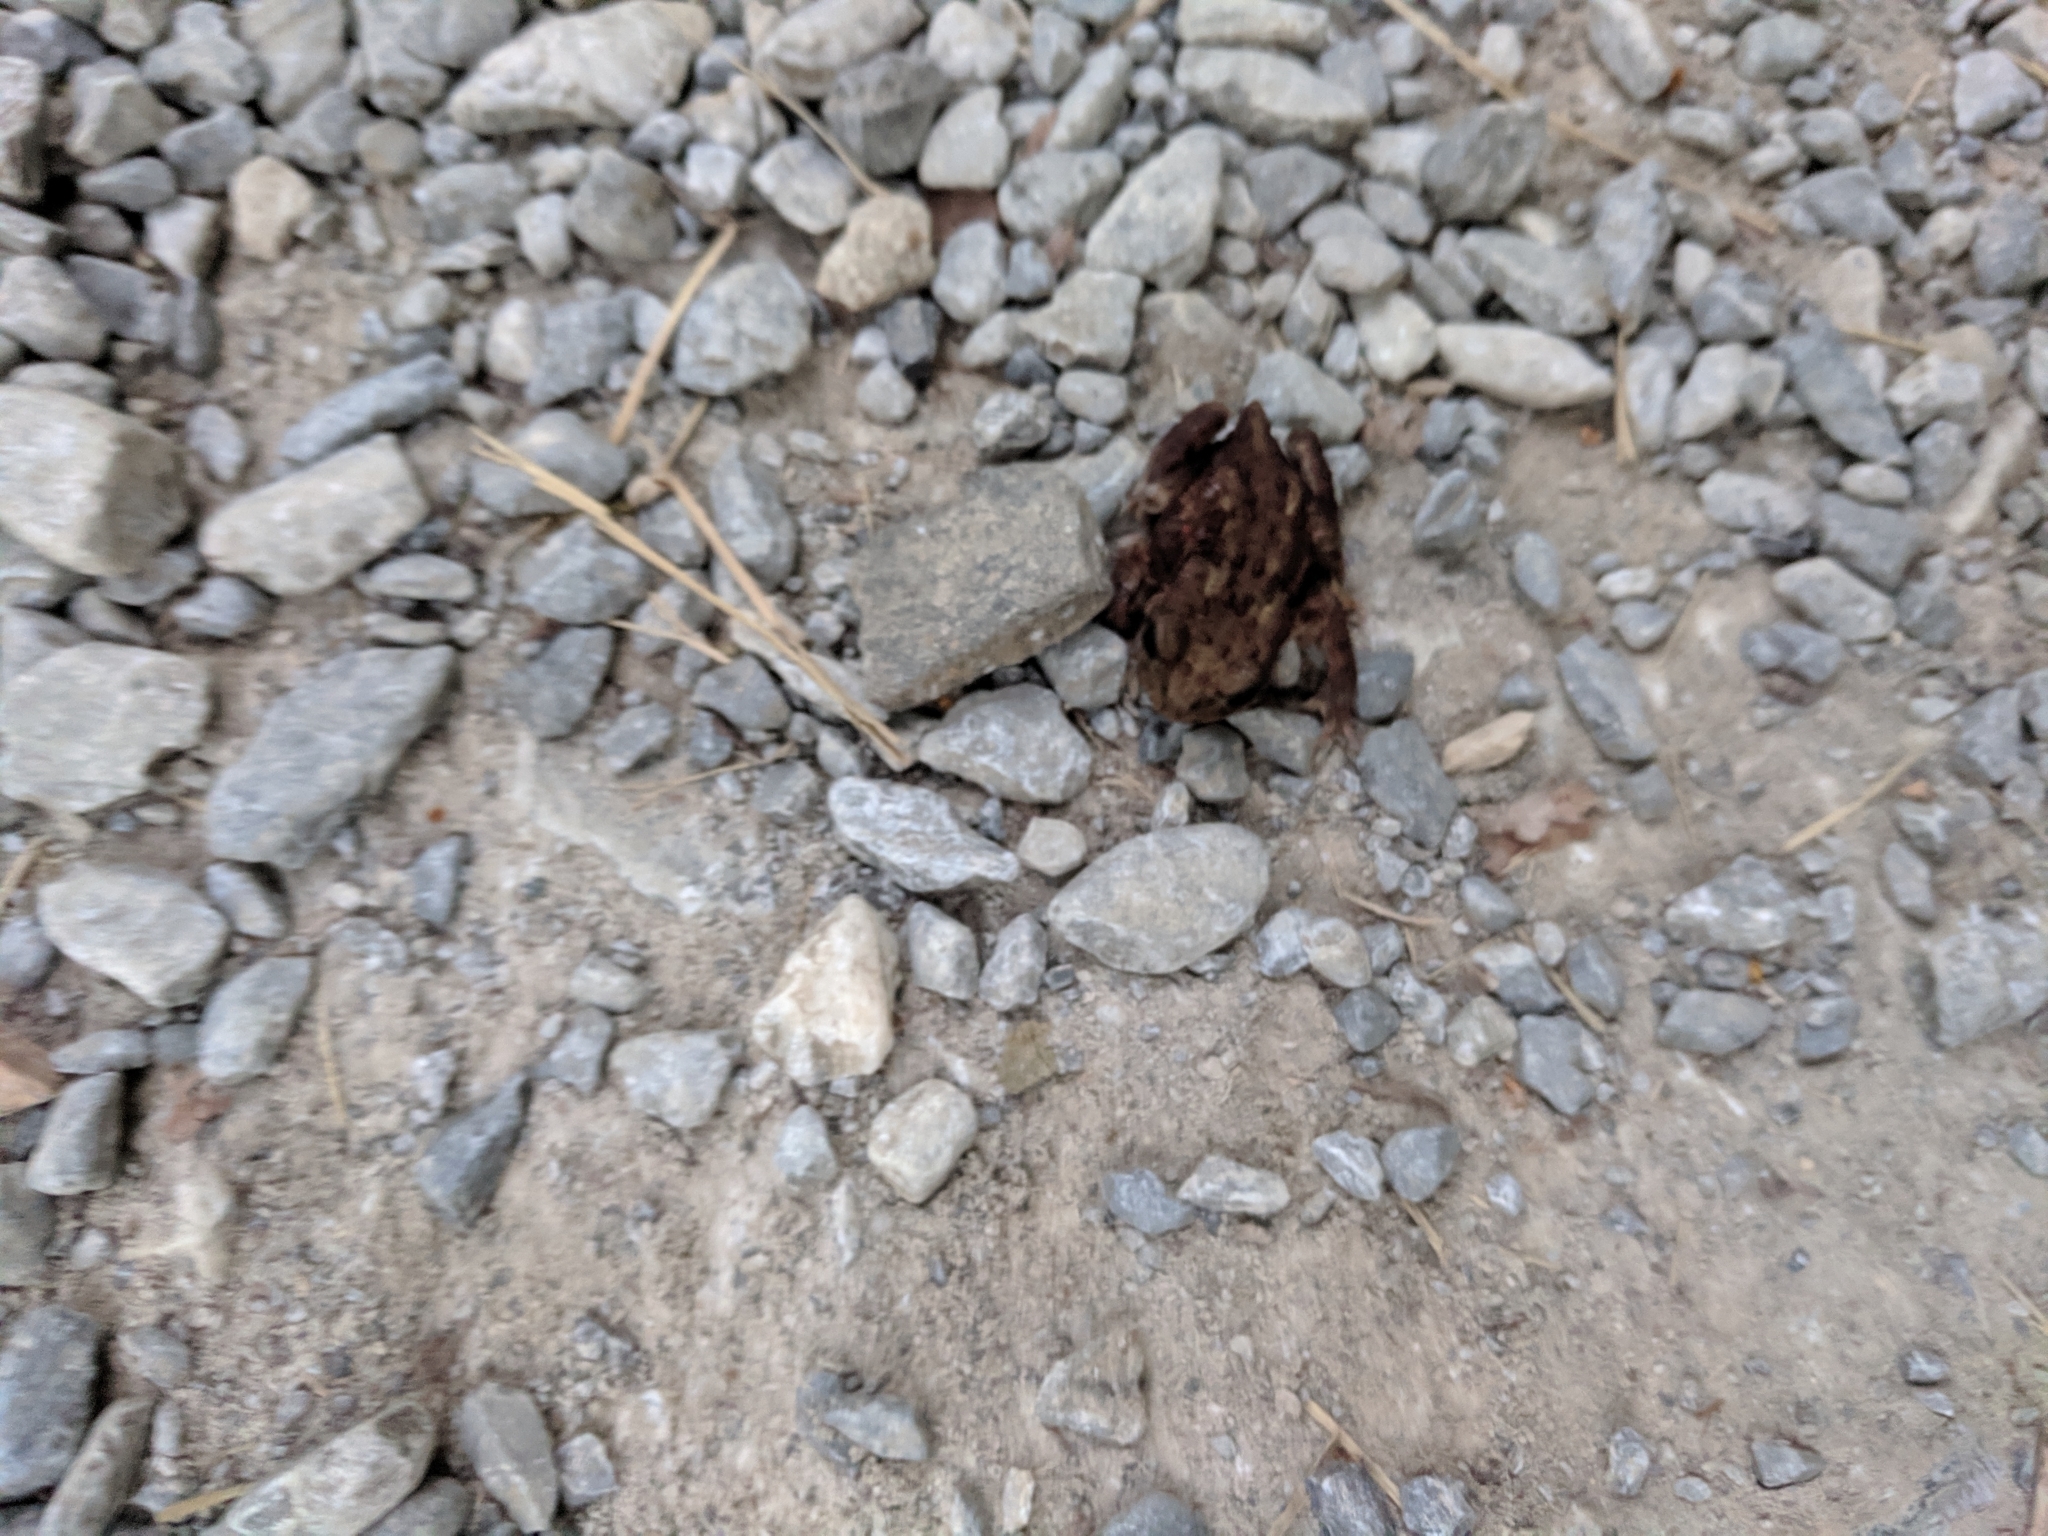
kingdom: Animalia
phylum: Chordata
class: Amphibia
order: Anura
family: Bufonidae
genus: Bufo
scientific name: Bufo bufo
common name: Common toad
